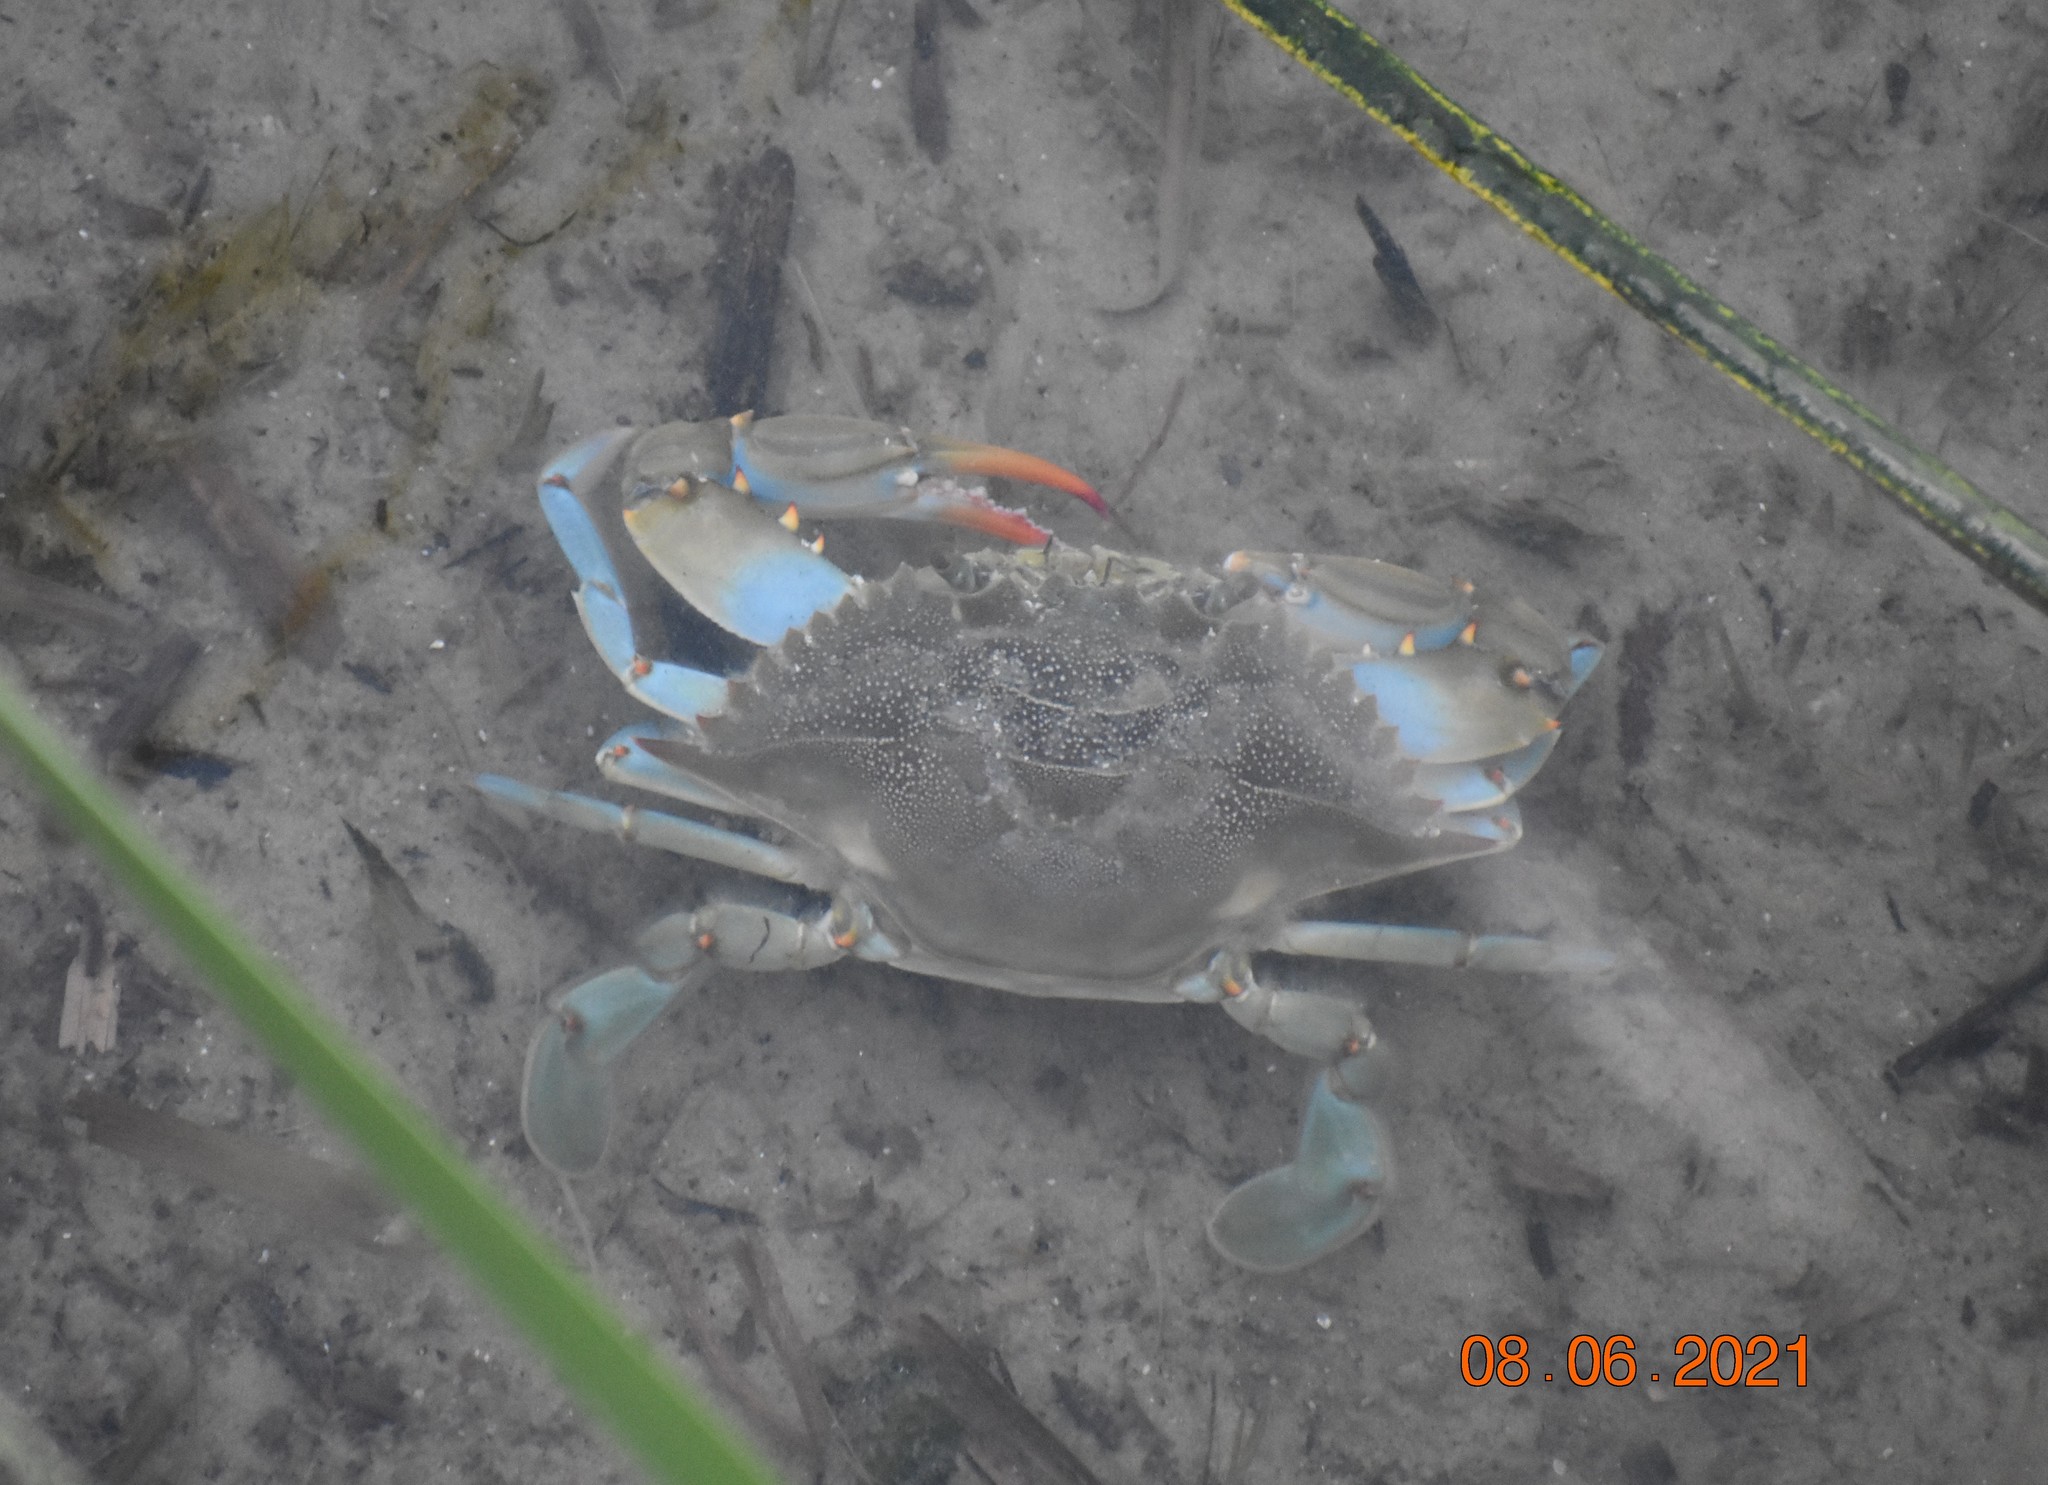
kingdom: Animalia
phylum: Arthropoda
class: Malacostraca
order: Decapoda
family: Portunidae
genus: Callinectes
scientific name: Callinectes sapidus
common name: Blue crab
